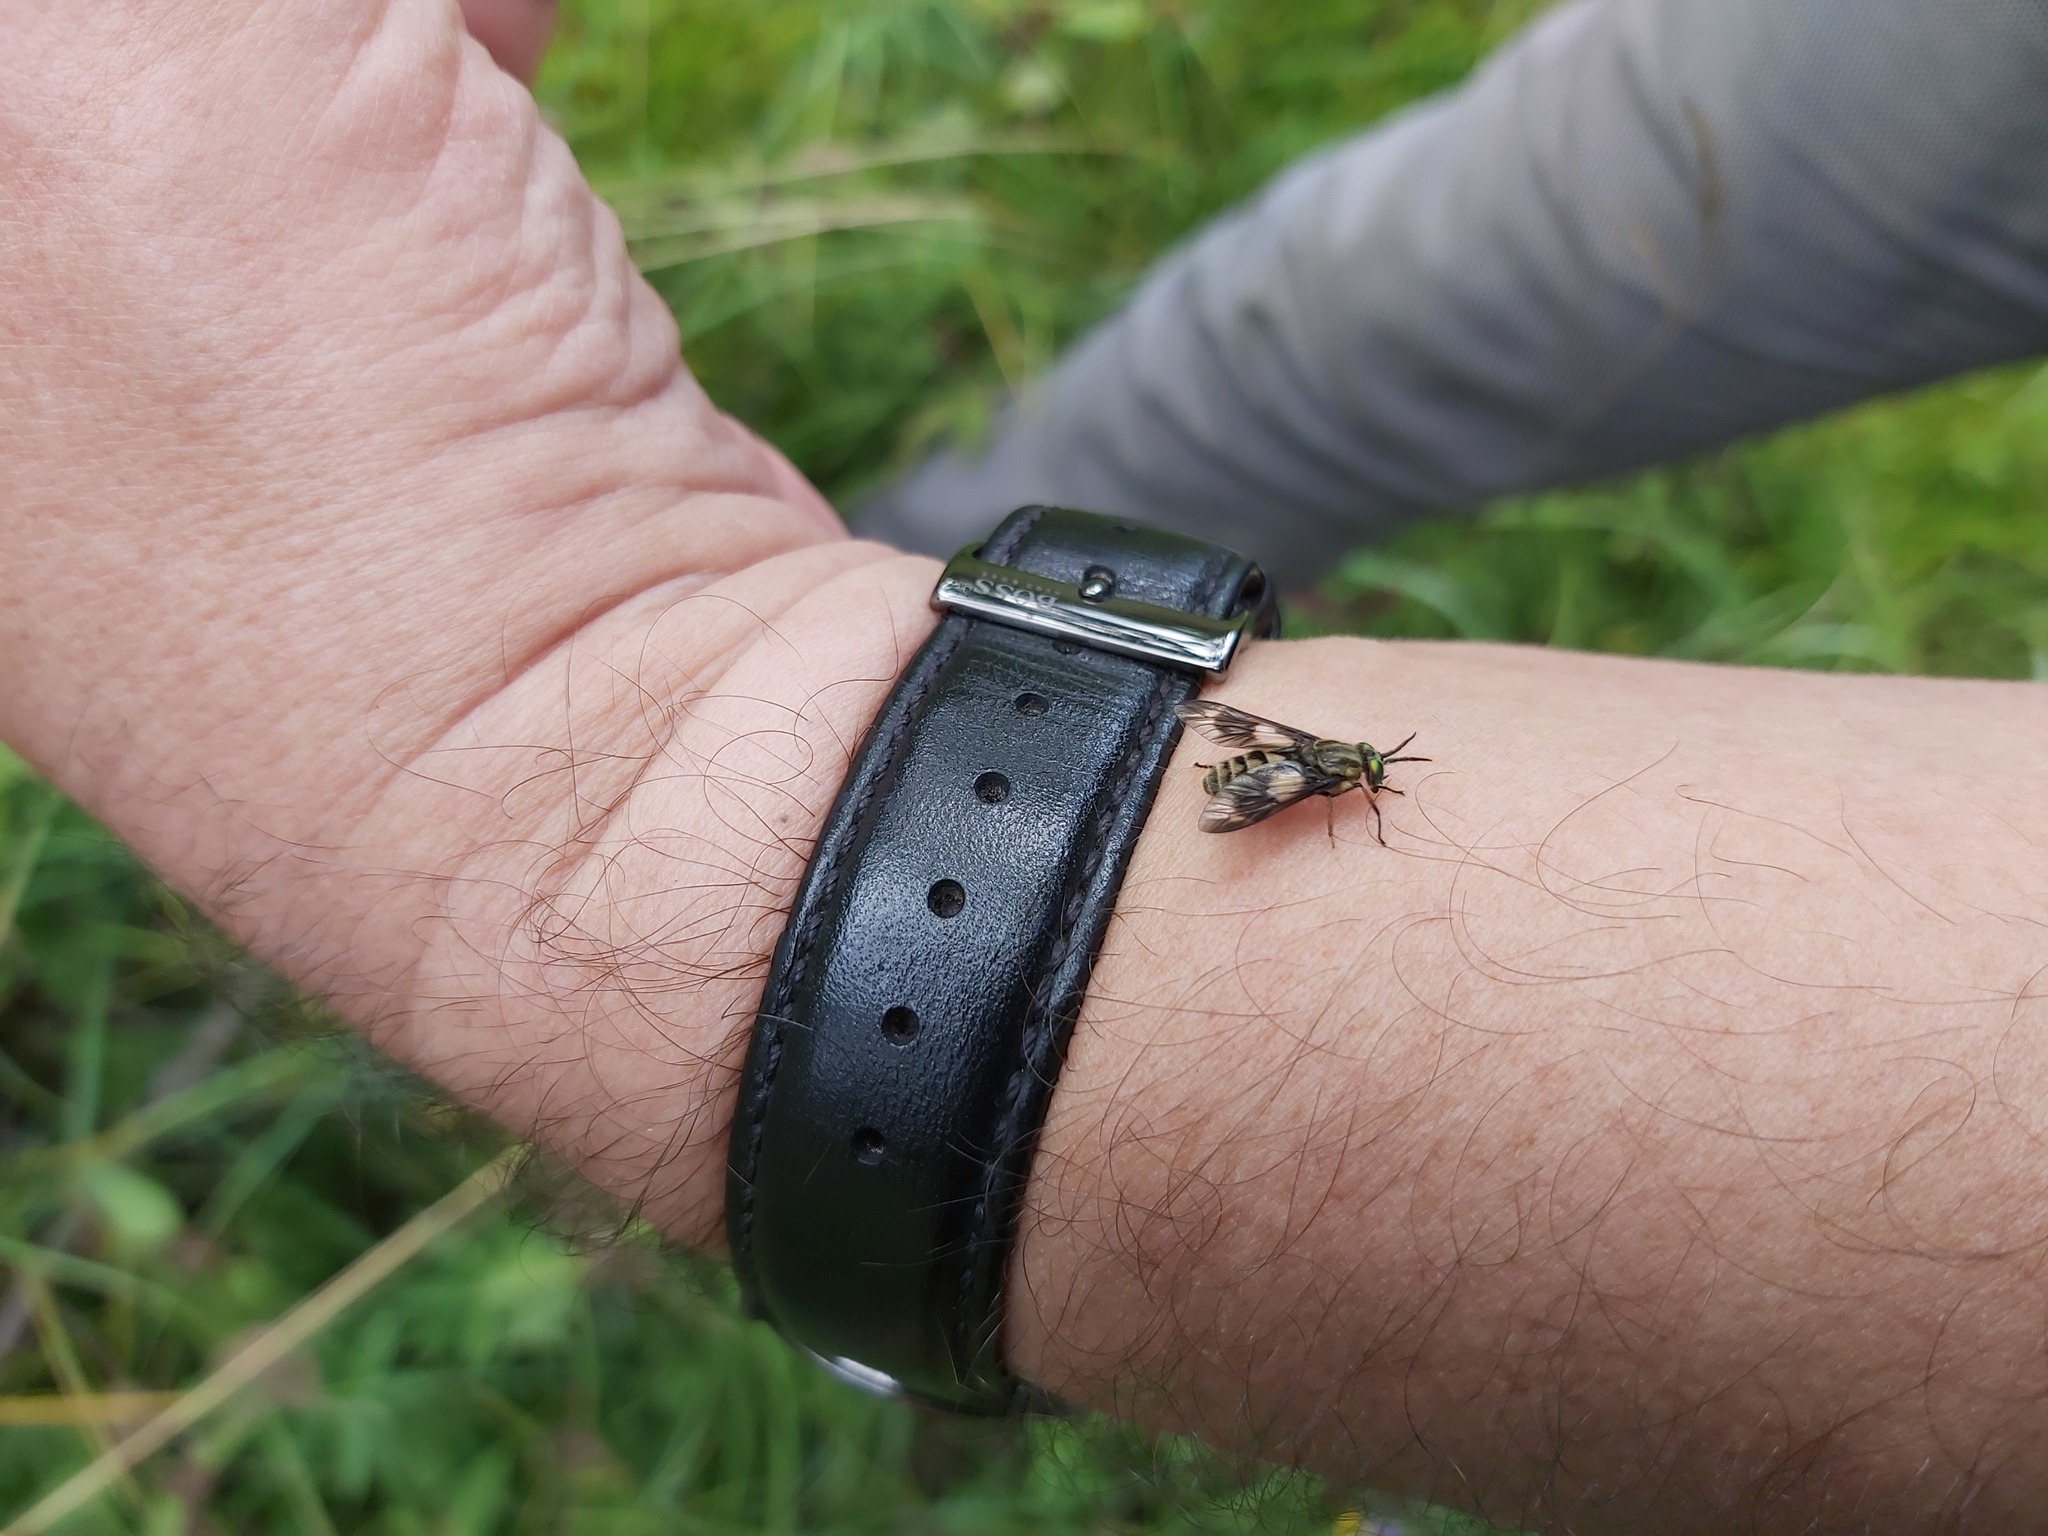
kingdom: Animalia
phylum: Arthropoda
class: Insecta
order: Diptera
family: Tabanidae
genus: Chrysops
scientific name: Chrysops relictus
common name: Twin-lobed deerfly
